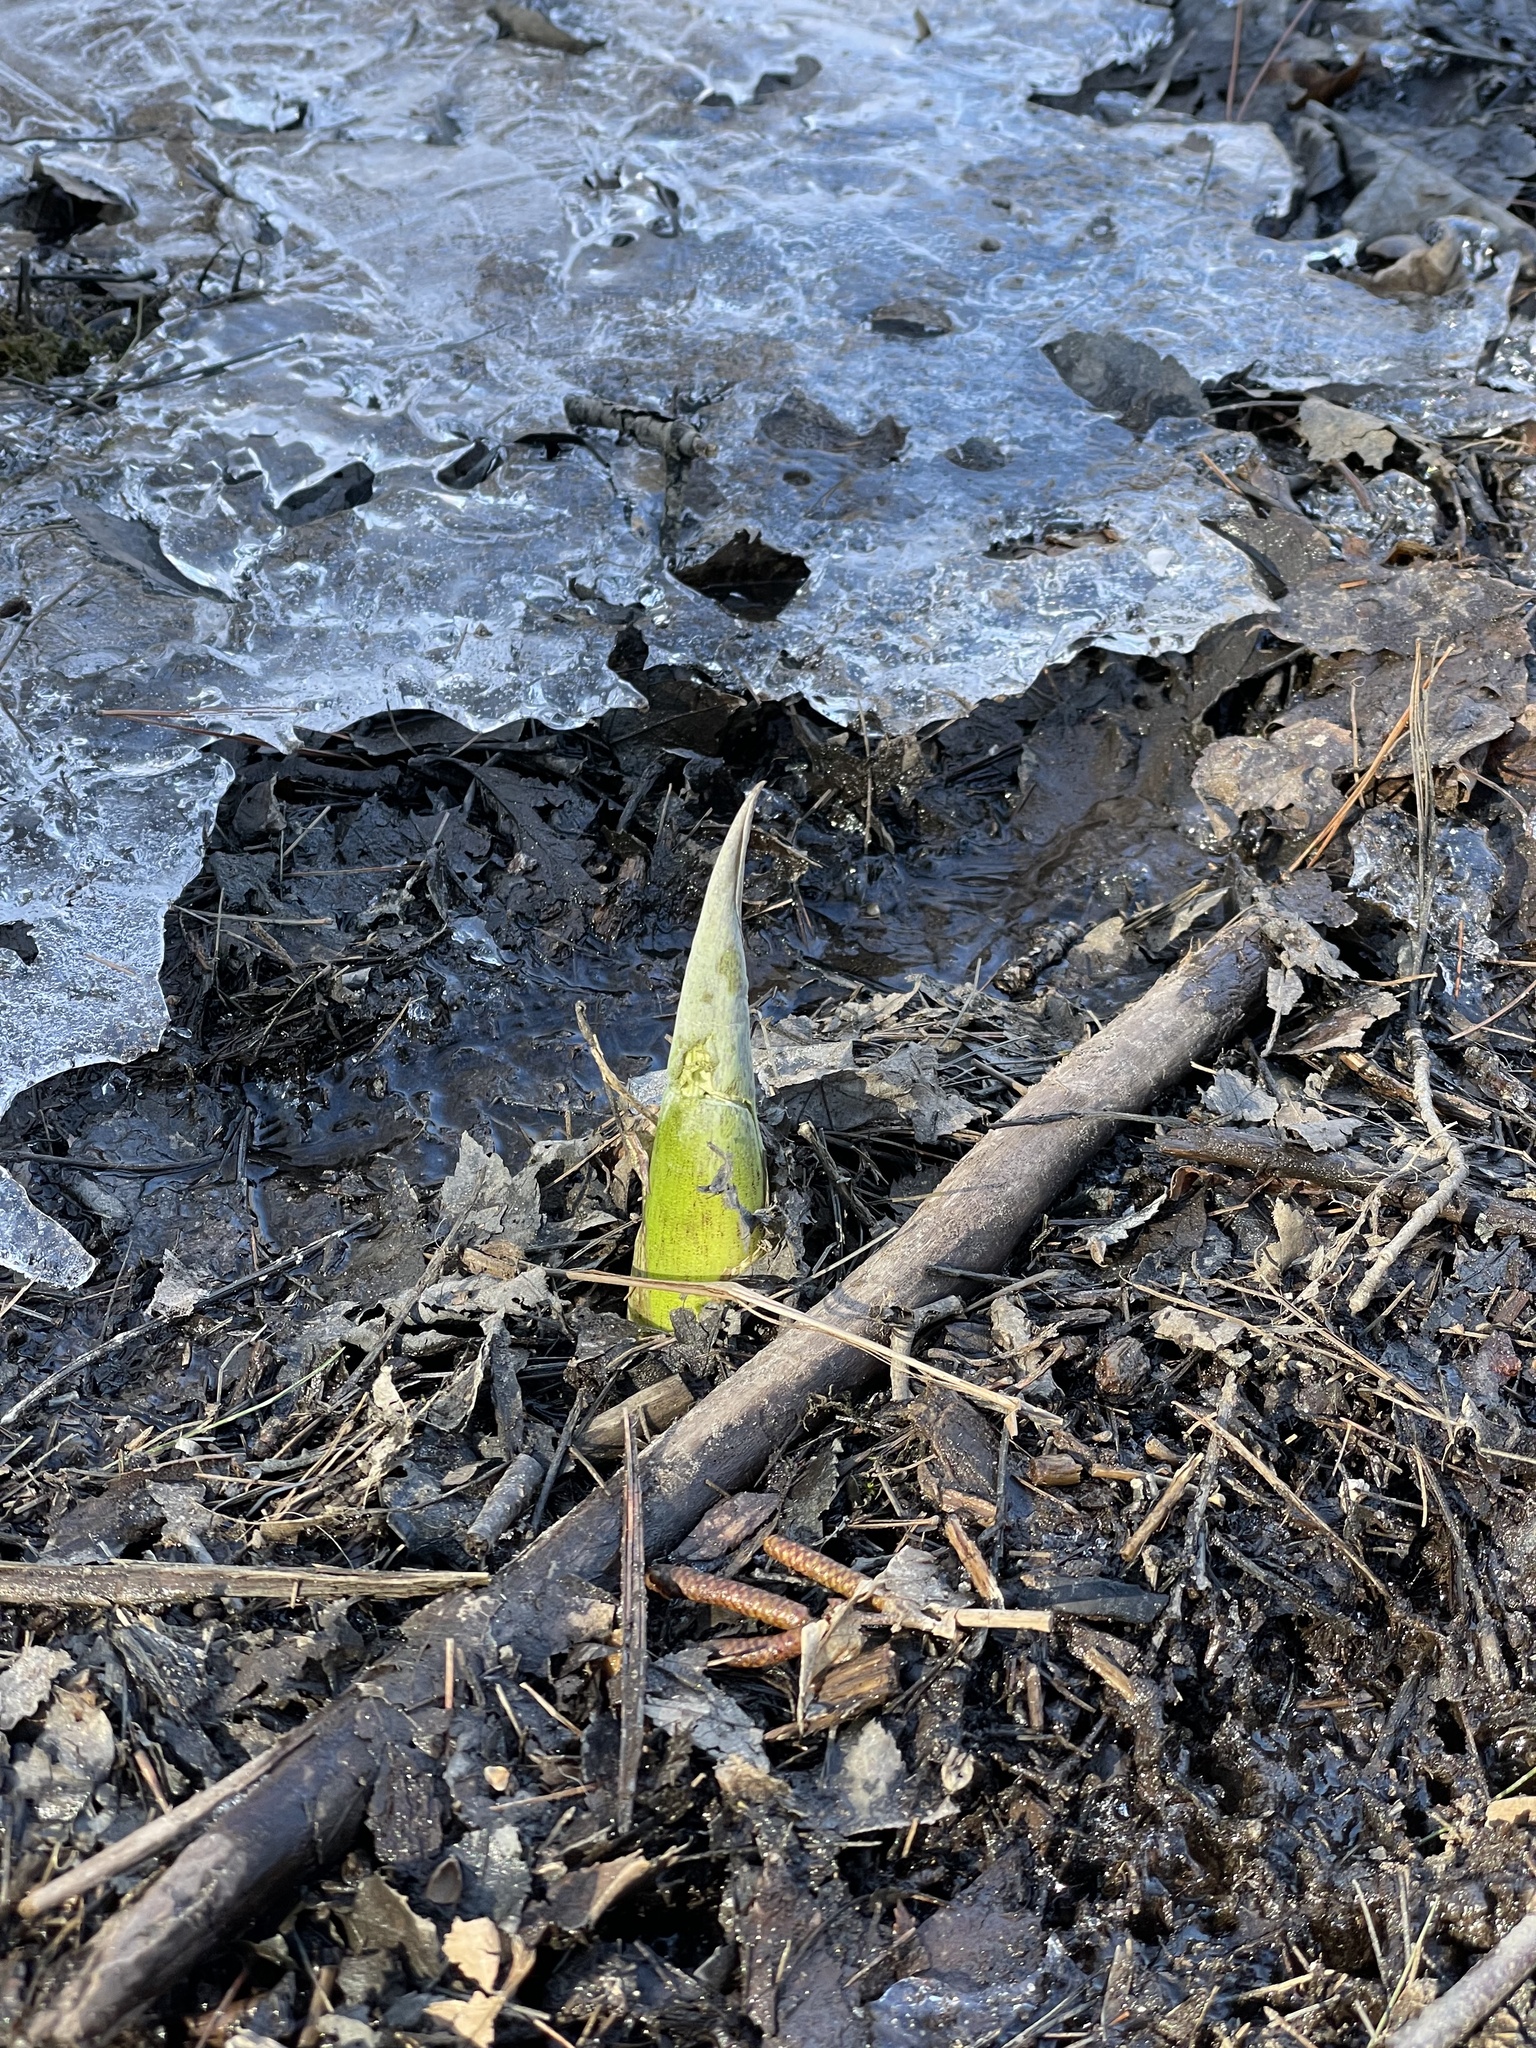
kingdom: Plantae
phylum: Tracheophyta
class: Liliopsida
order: Alismatales
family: Araceae
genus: Symplocarpus
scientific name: Symplocarpus foetidus
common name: Eastern skunk cabbage
